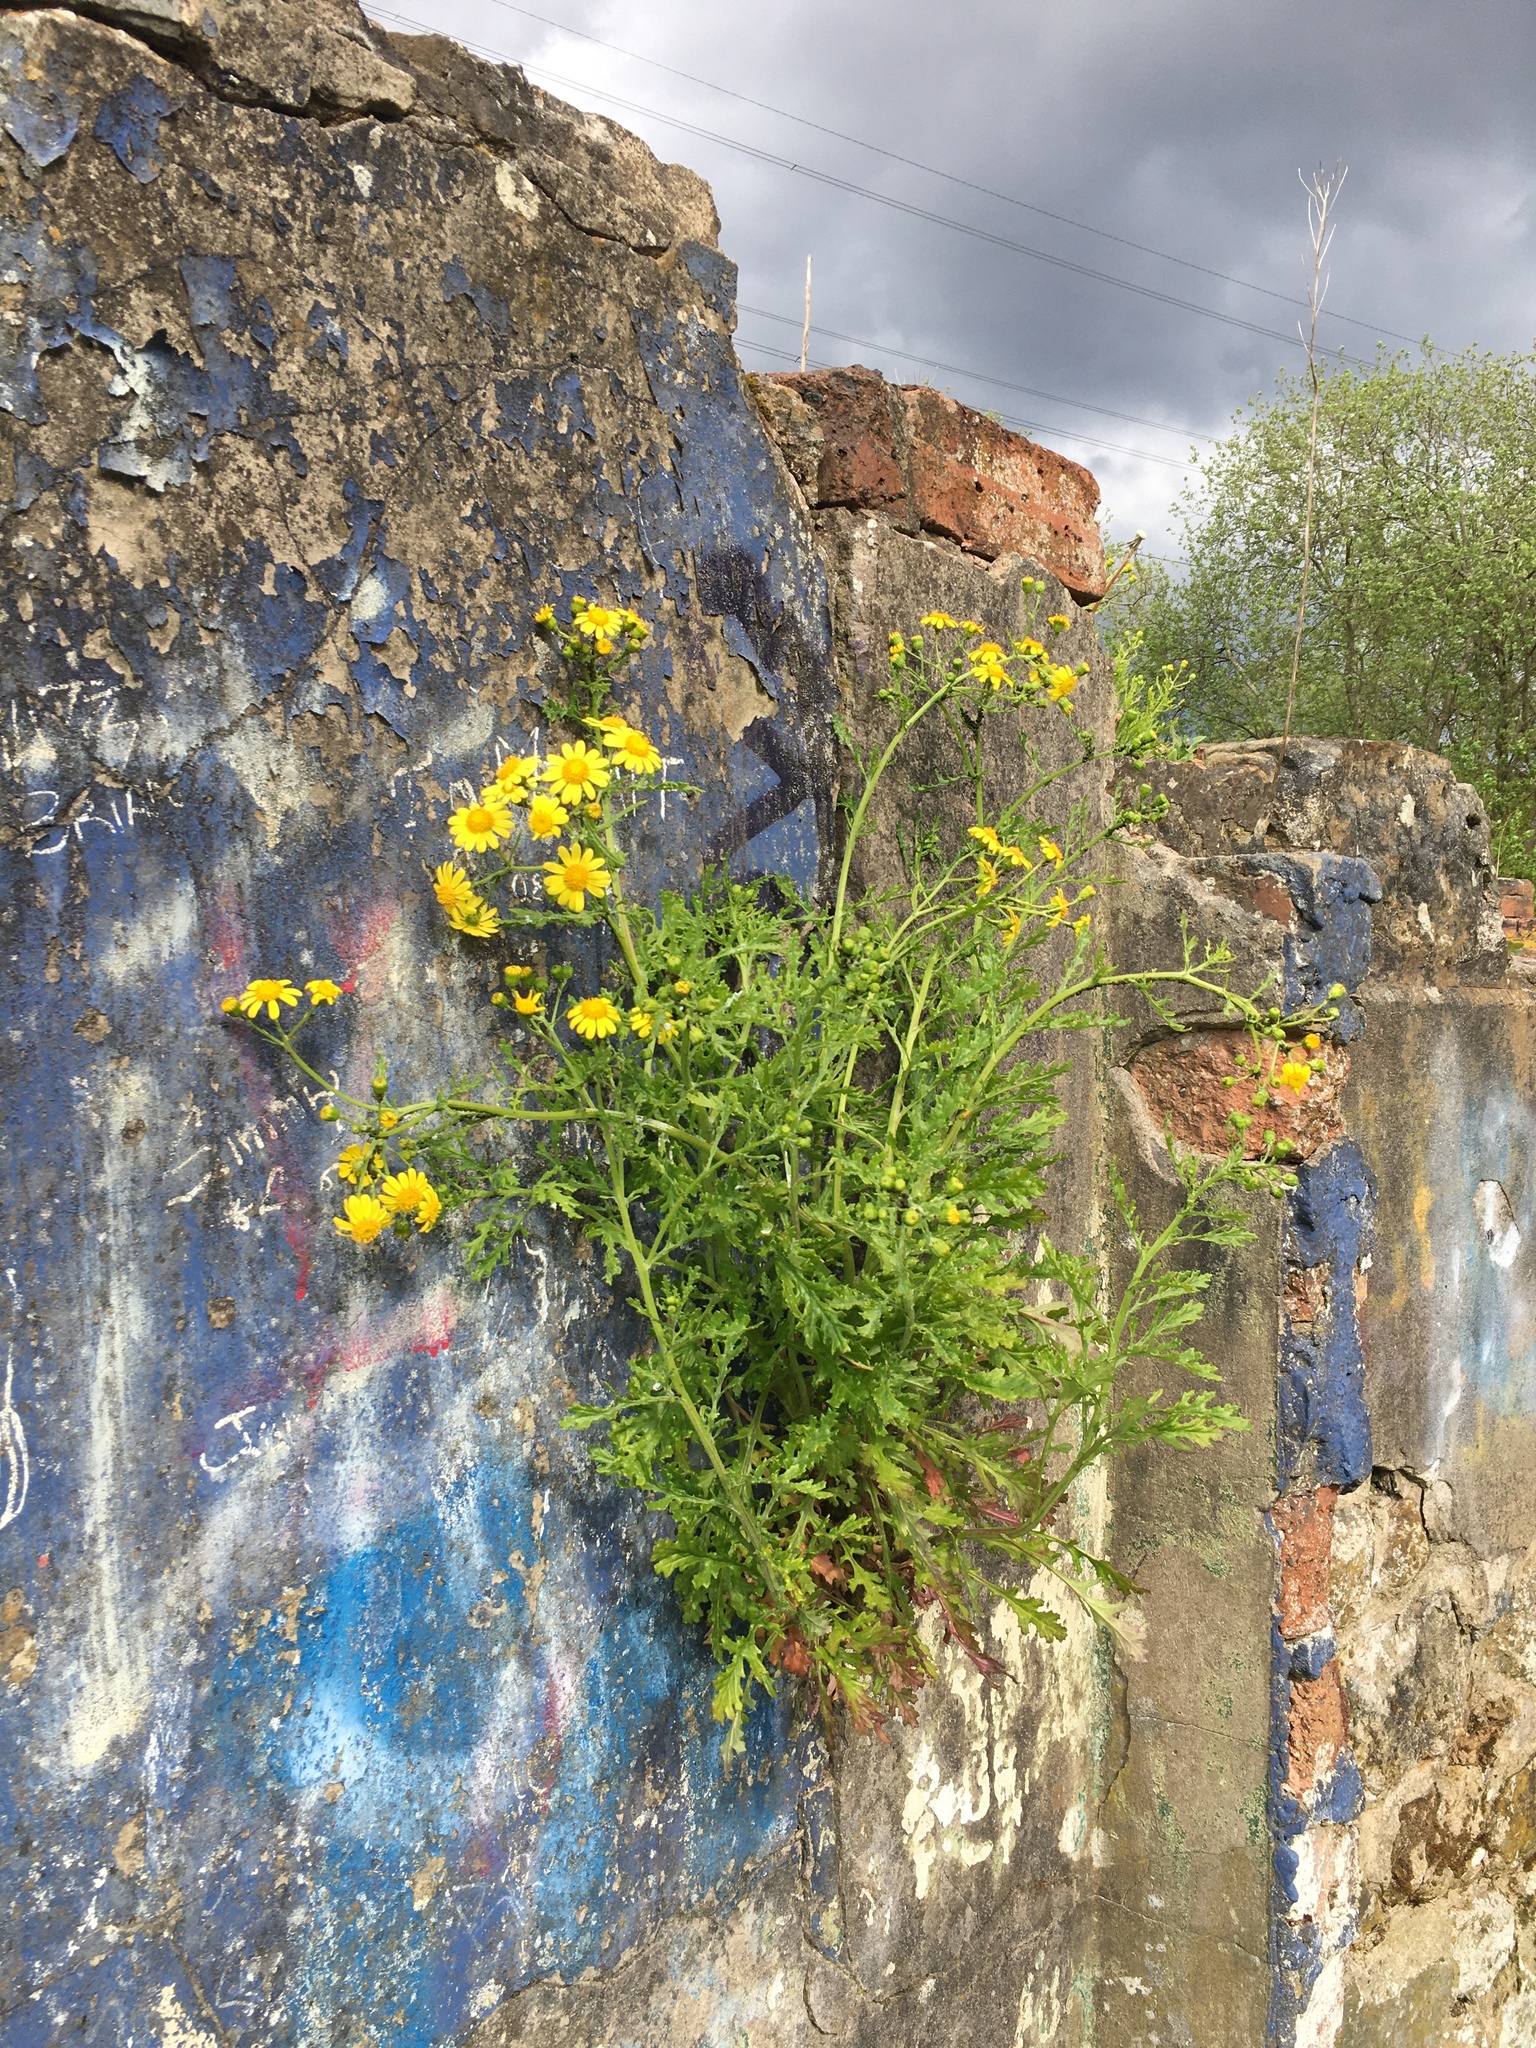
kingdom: Plantae
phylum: Tracheophyta
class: Magnoliopsida
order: Asterales
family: Asteraceae
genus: Senecio
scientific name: Senecio squalidus
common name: Oxford ragwort
